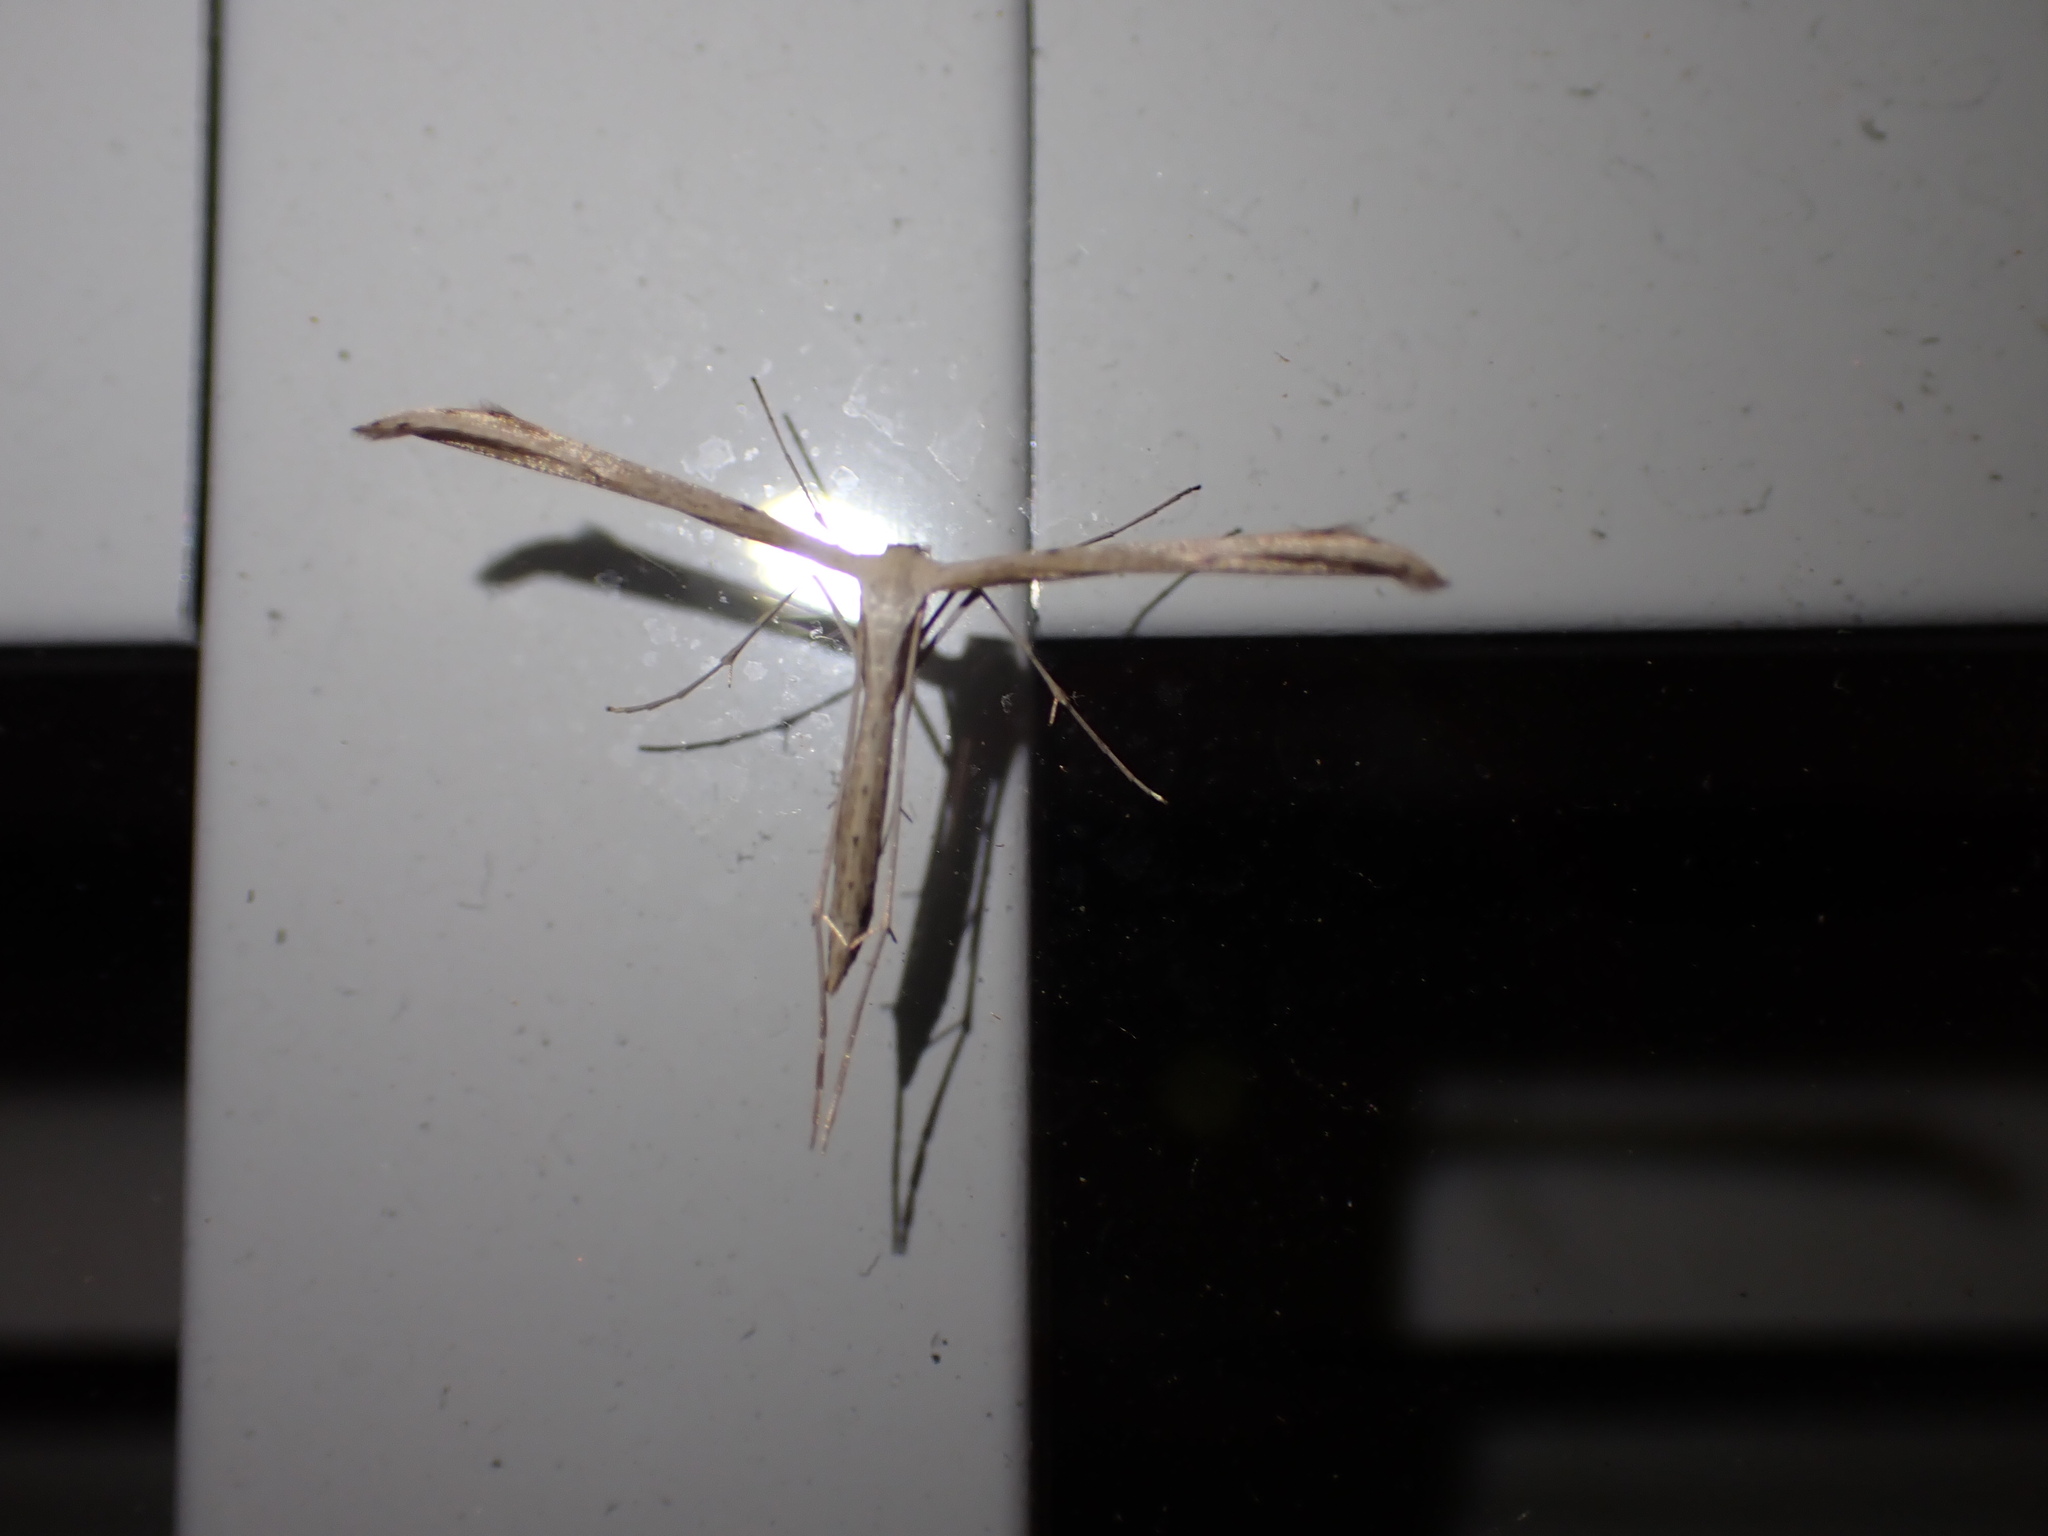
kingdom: Animalia
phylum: Arthropoda
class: Insecta
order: Lepidoptera
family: Pterophoridae
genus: Emmelina
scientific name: Emmelina monodactyla
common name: Common plume
